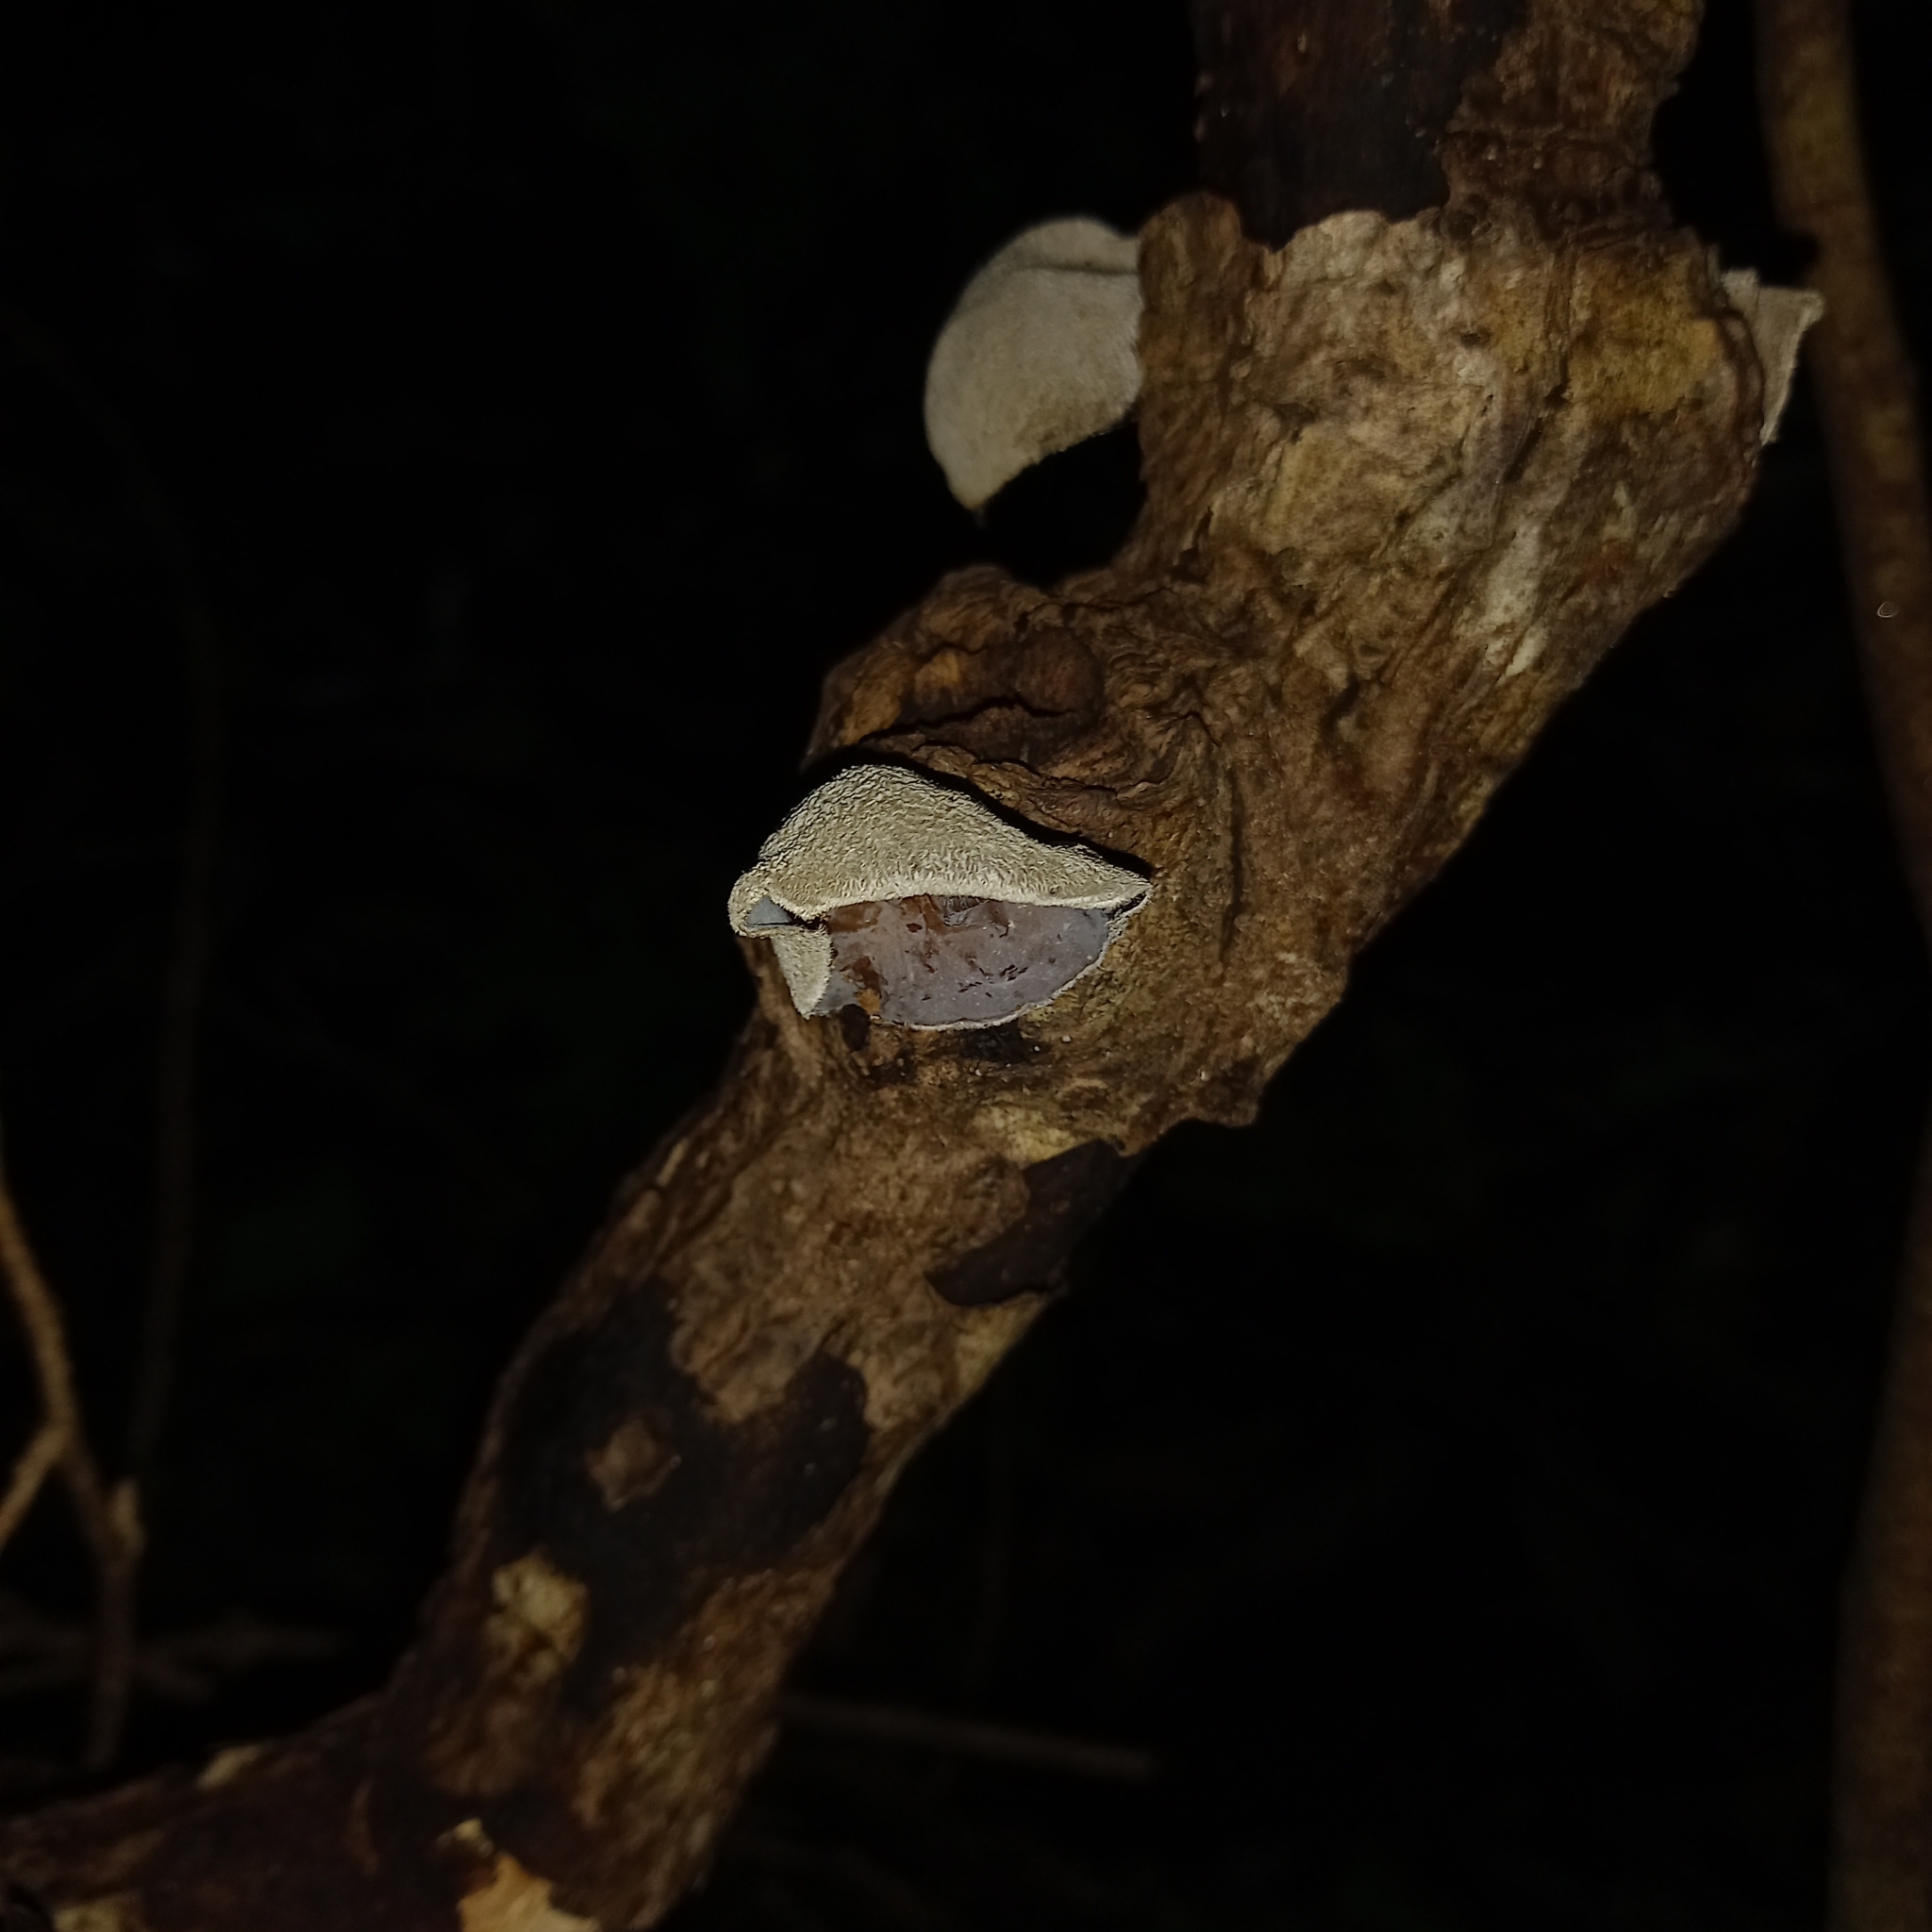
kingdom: Fungi
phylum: Basidiomycota
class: Agaricomycetes
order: Auriculariales
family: Auriculariaceae
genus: Auricularia
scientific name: Auricularia nigricans
